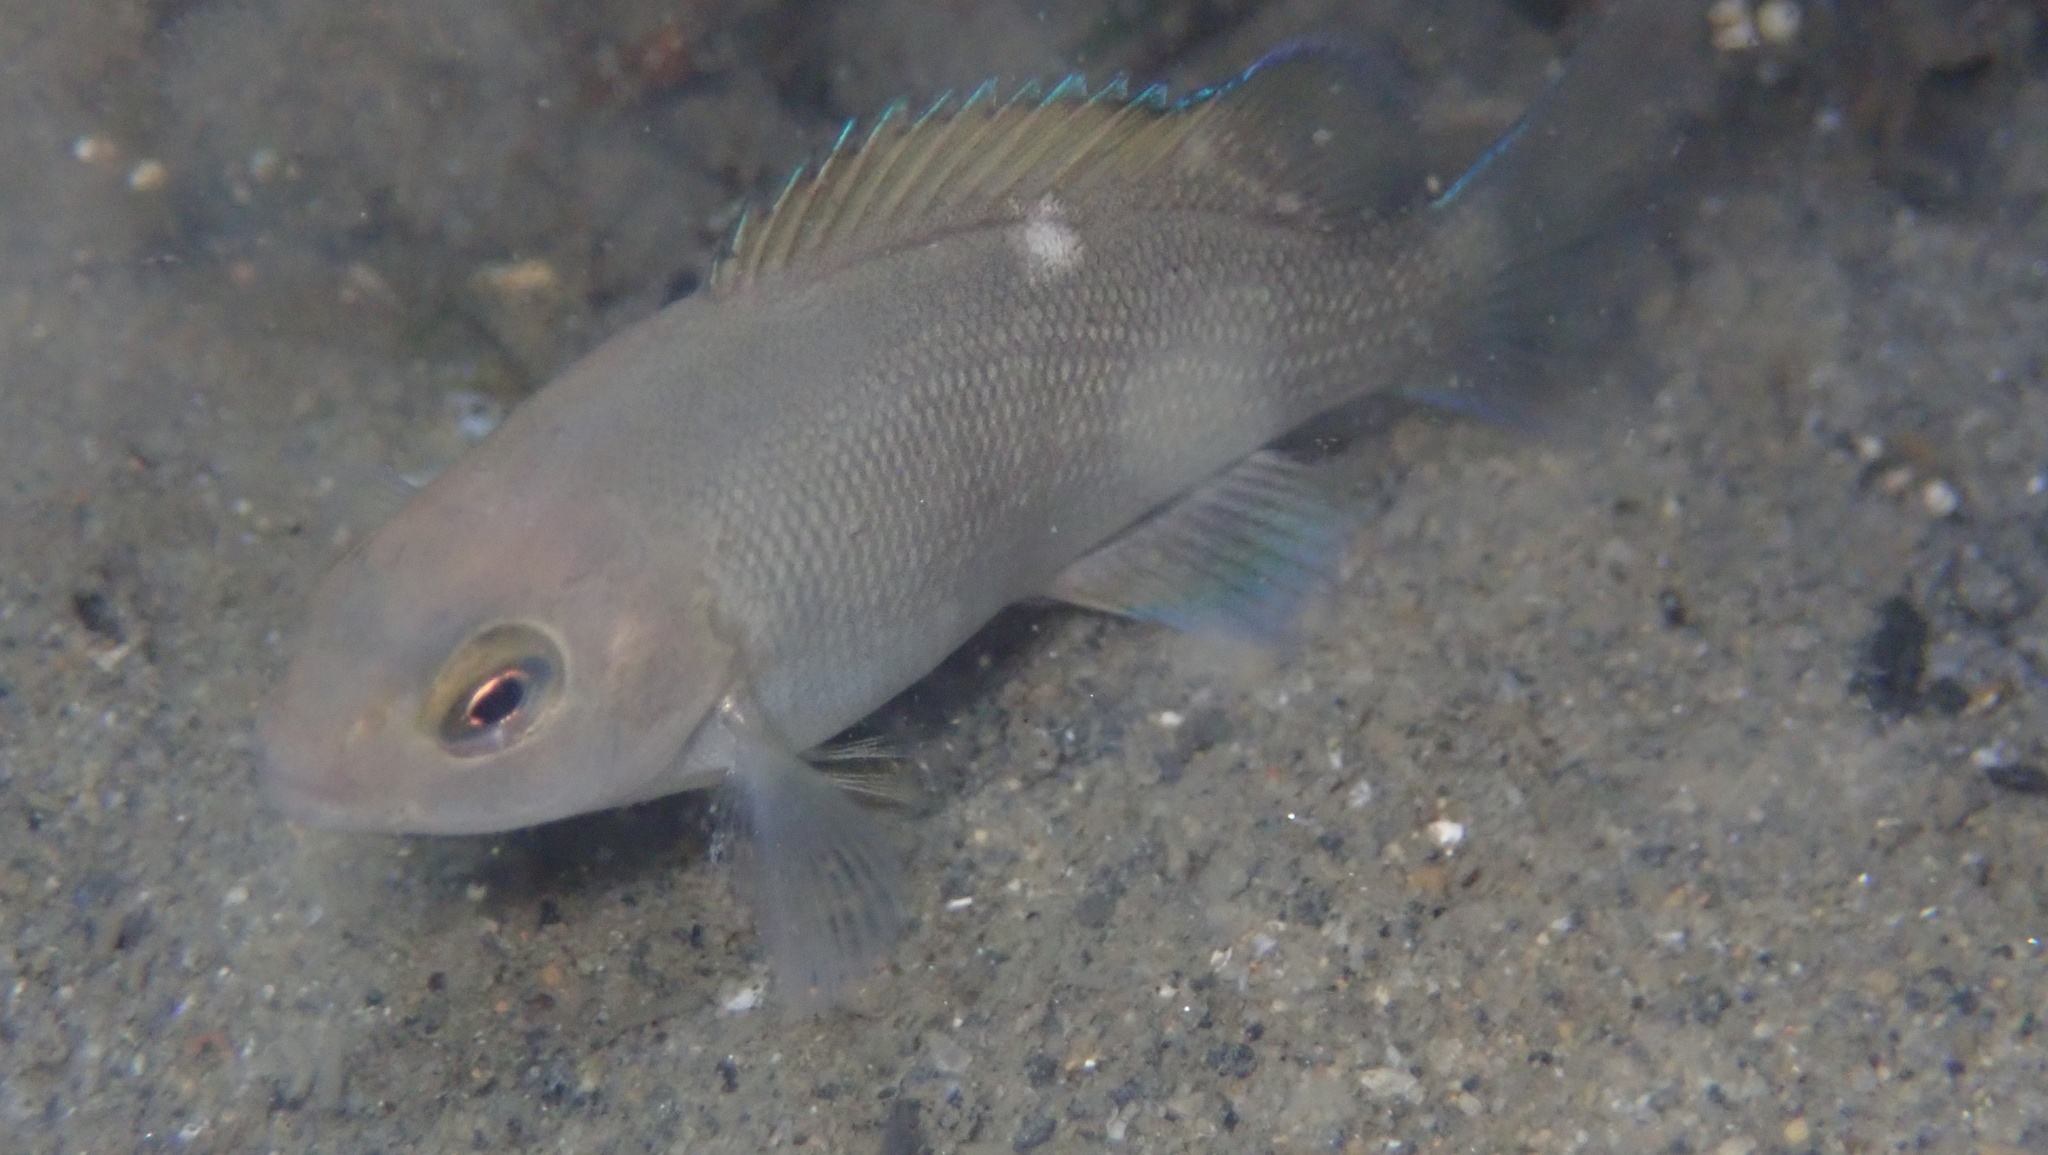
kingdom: Animalia
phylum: Chordata
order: Perciformes
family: Kyphosidae
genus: Girella
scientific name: Girella nigricans
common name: Opaleye
